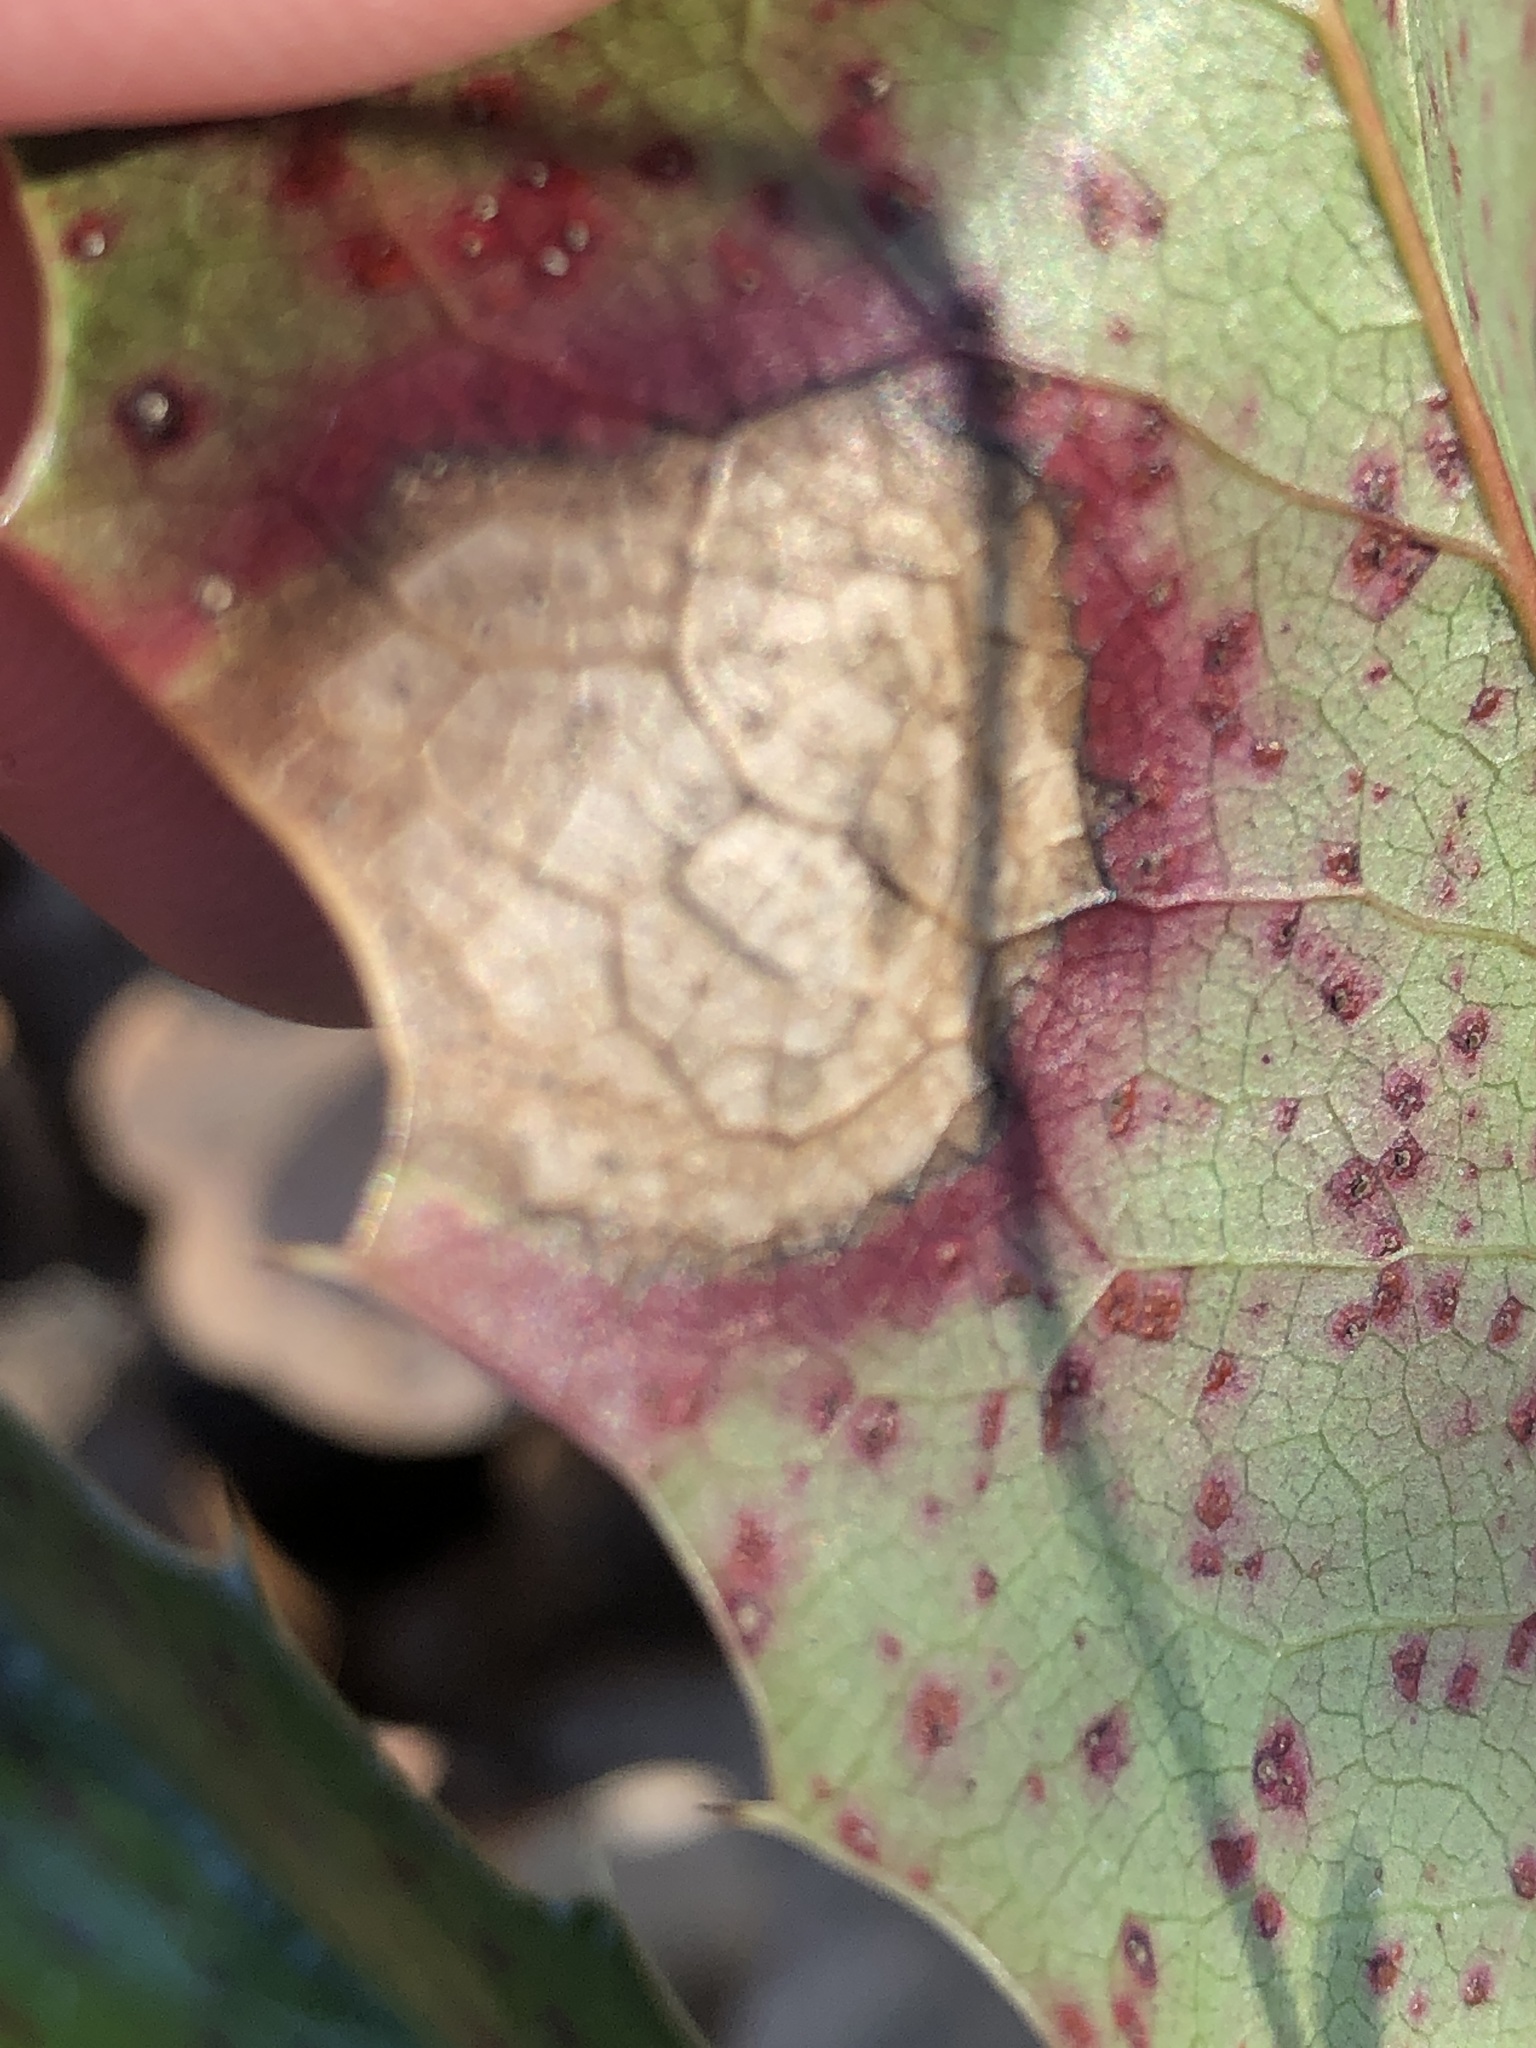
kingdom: Fungi
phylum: Basidiomycota
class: Pucciniomycetes
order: Pucciniales
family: Pucciniaceae
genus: Cumminsiella
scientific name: Cumminsiella mirabilissima
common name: Mahonia rust
